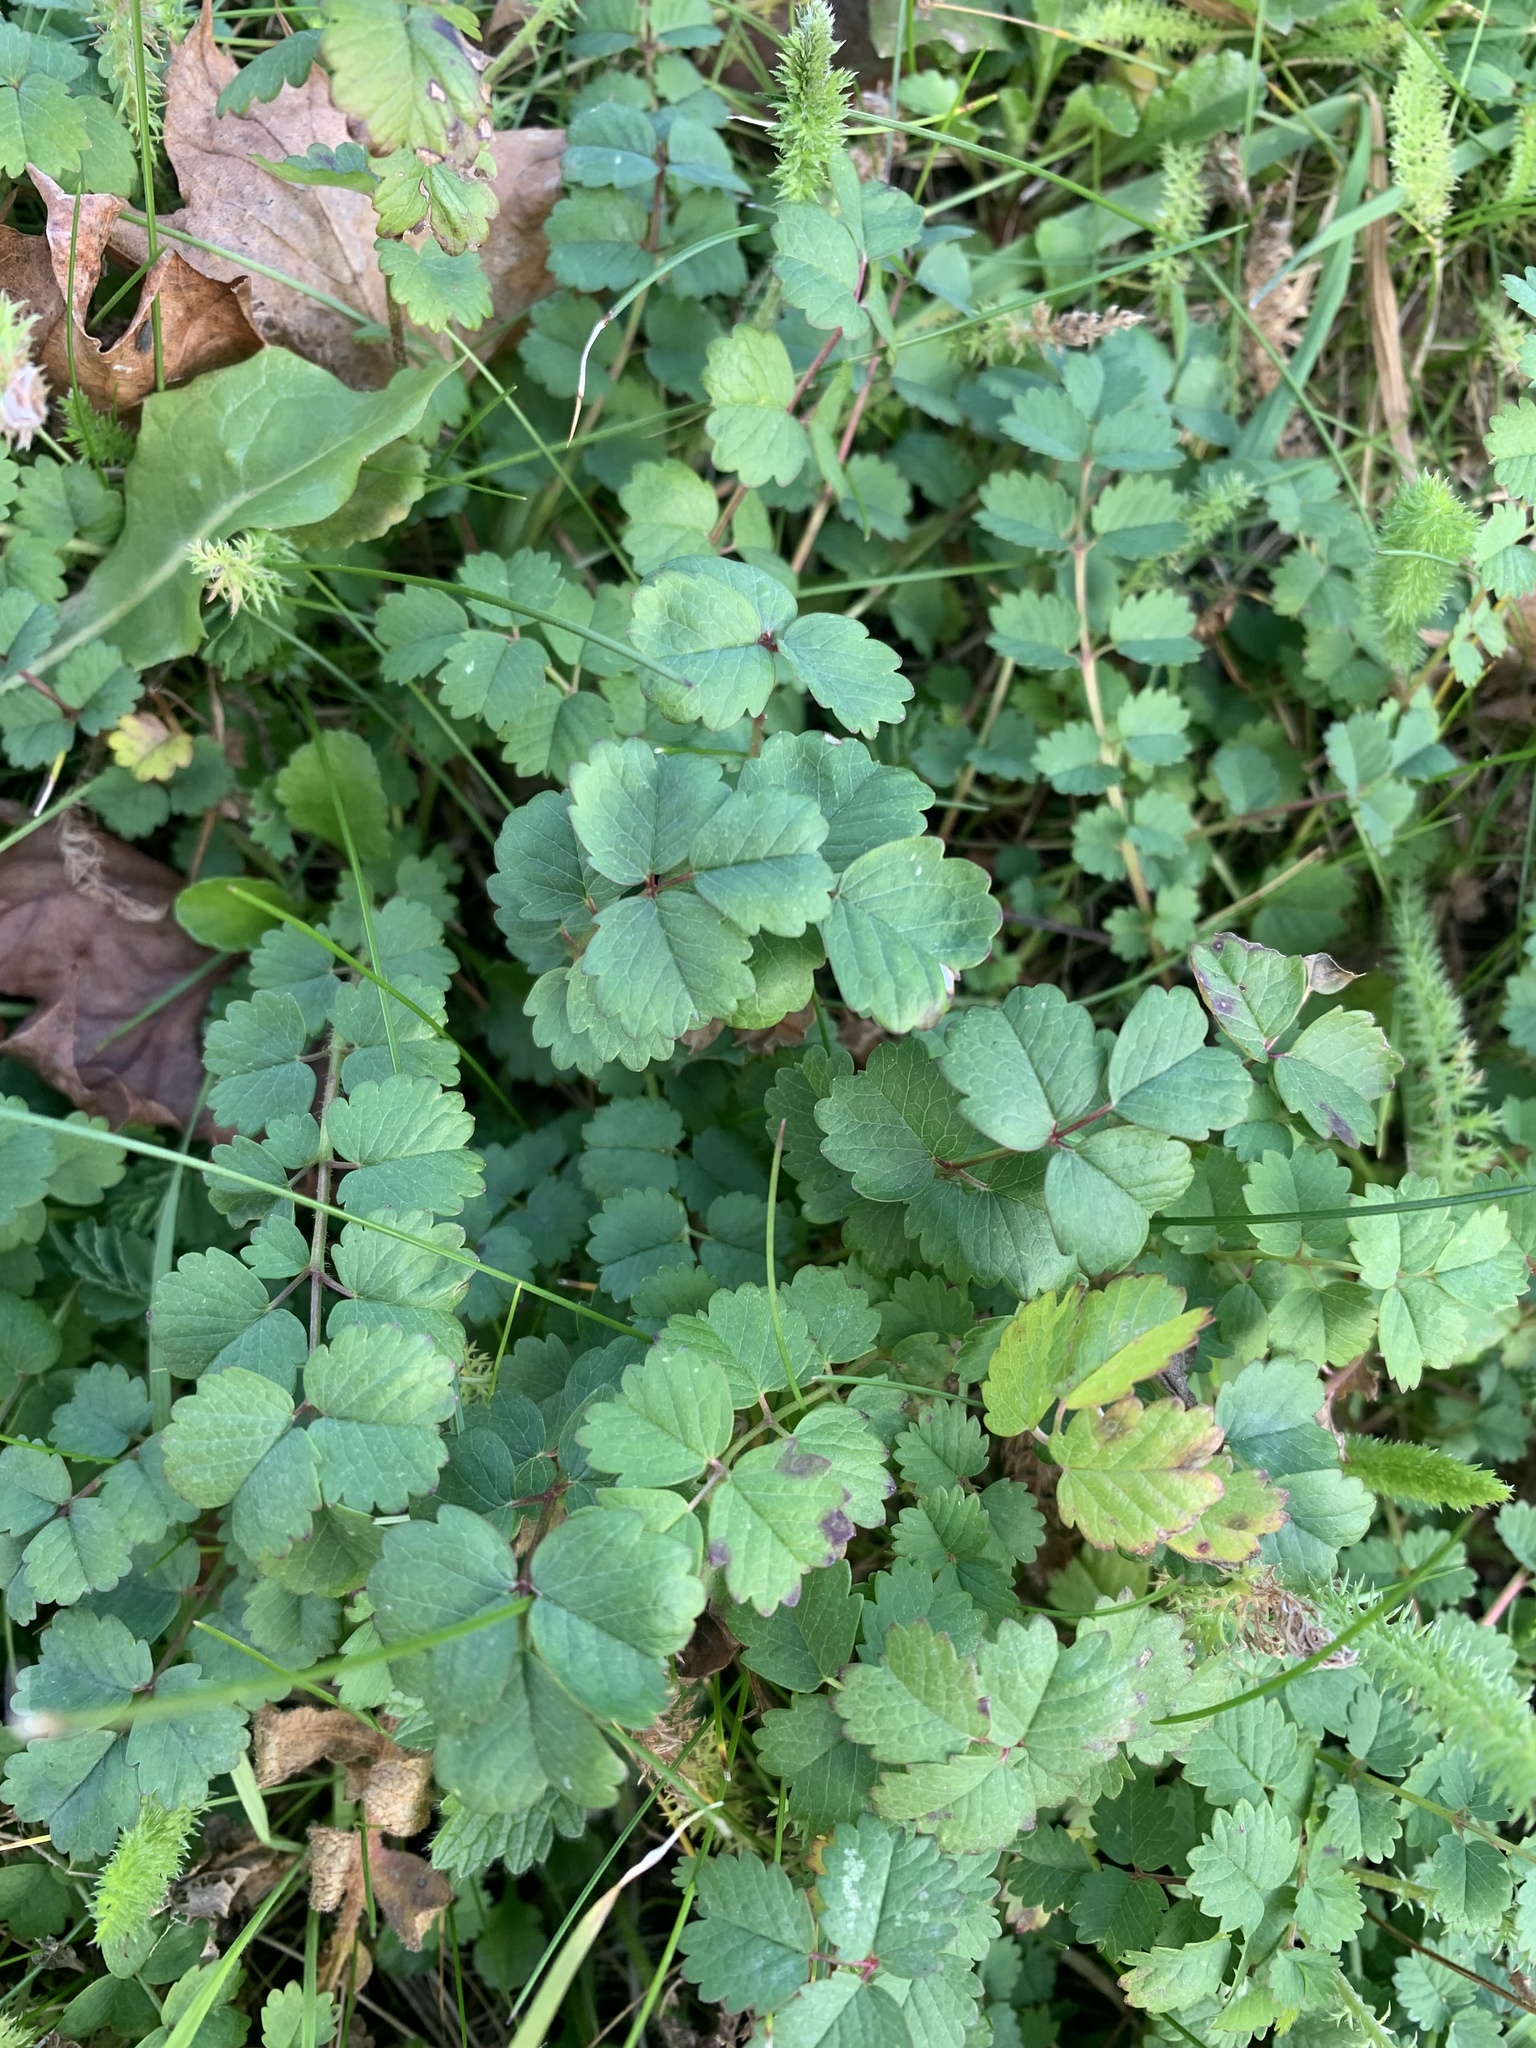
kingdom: Plantae
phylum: Tracheophyta
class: Magnoliopsida
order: Rosales
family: Rosaceae
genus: Poterium
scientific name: Poterium sanguisorba
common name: Salad burnet
